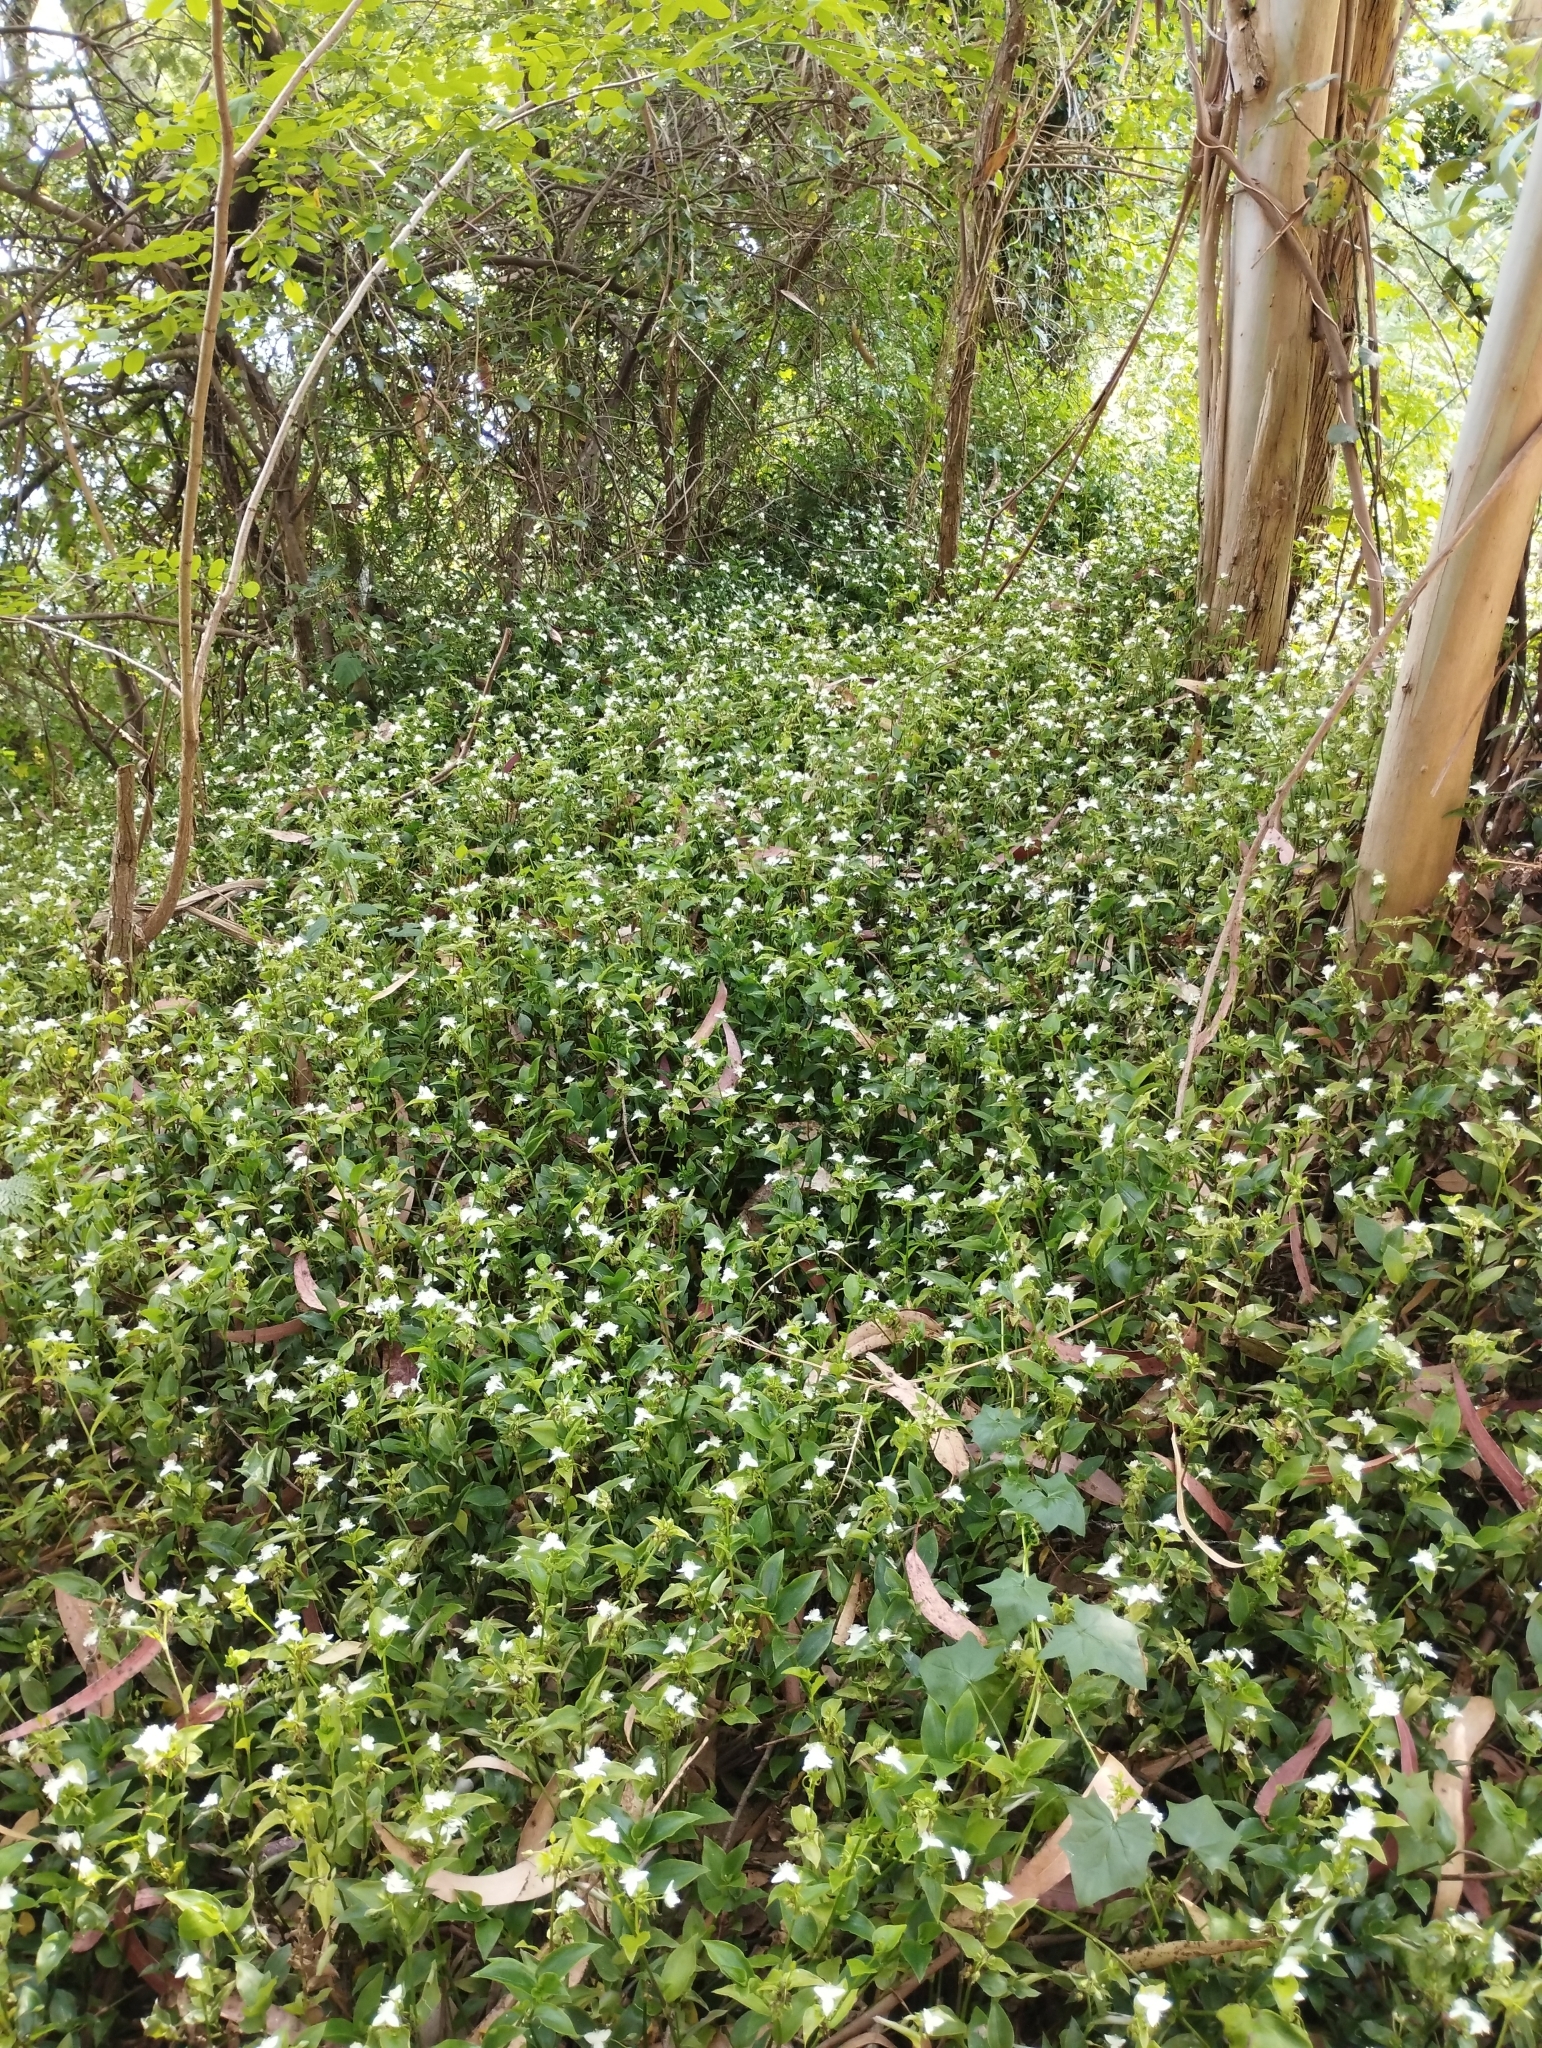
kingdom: Plantae
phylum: Tracheophyta
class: Liliopsida
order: Commelinales
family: Commelinaceae
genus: Tradescantia
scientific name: Tradescantia fluminensis
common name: Wandering-jew
